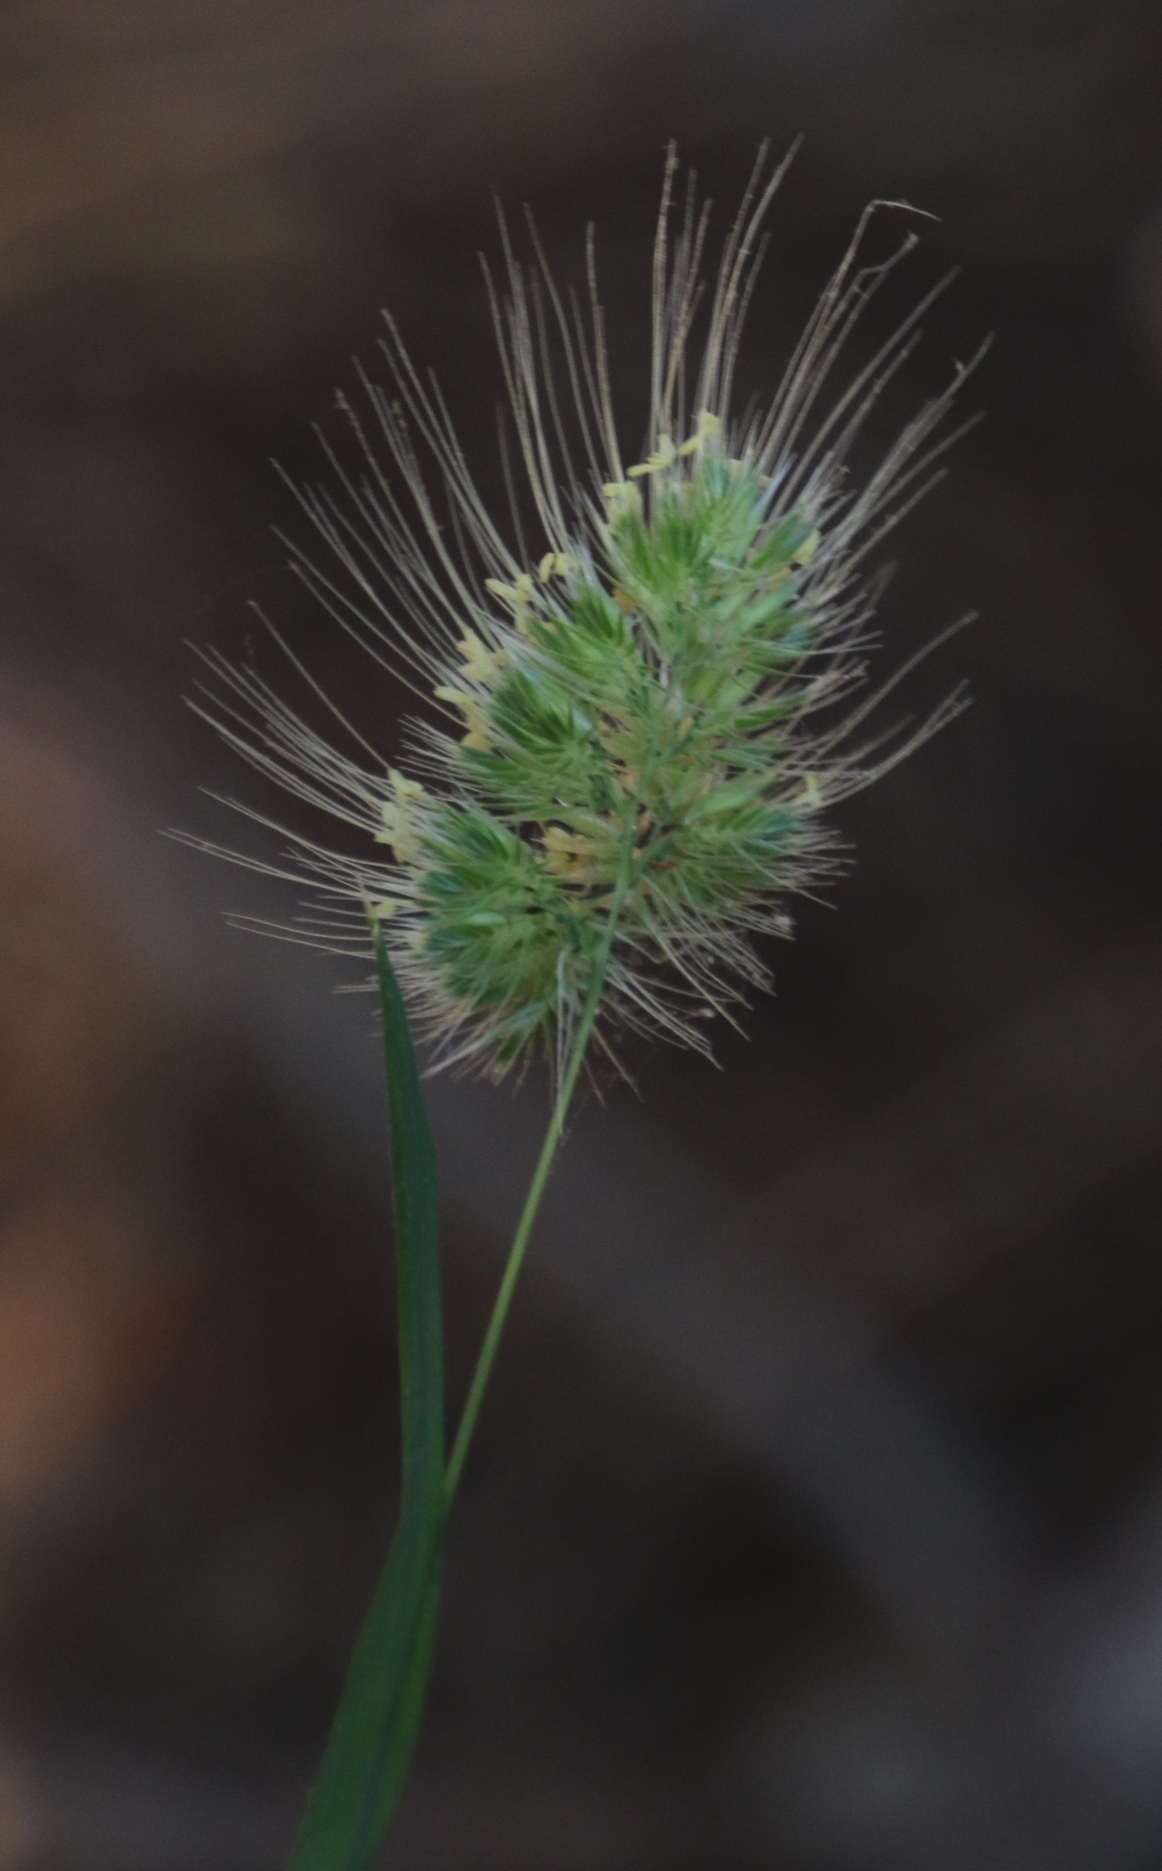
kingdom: Plantae
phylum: Tracheophyta
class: Liliopsida
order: Poales
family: Poaceae
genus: Lagurus
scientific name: Lagurus ovatus
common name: Hare's-tail
